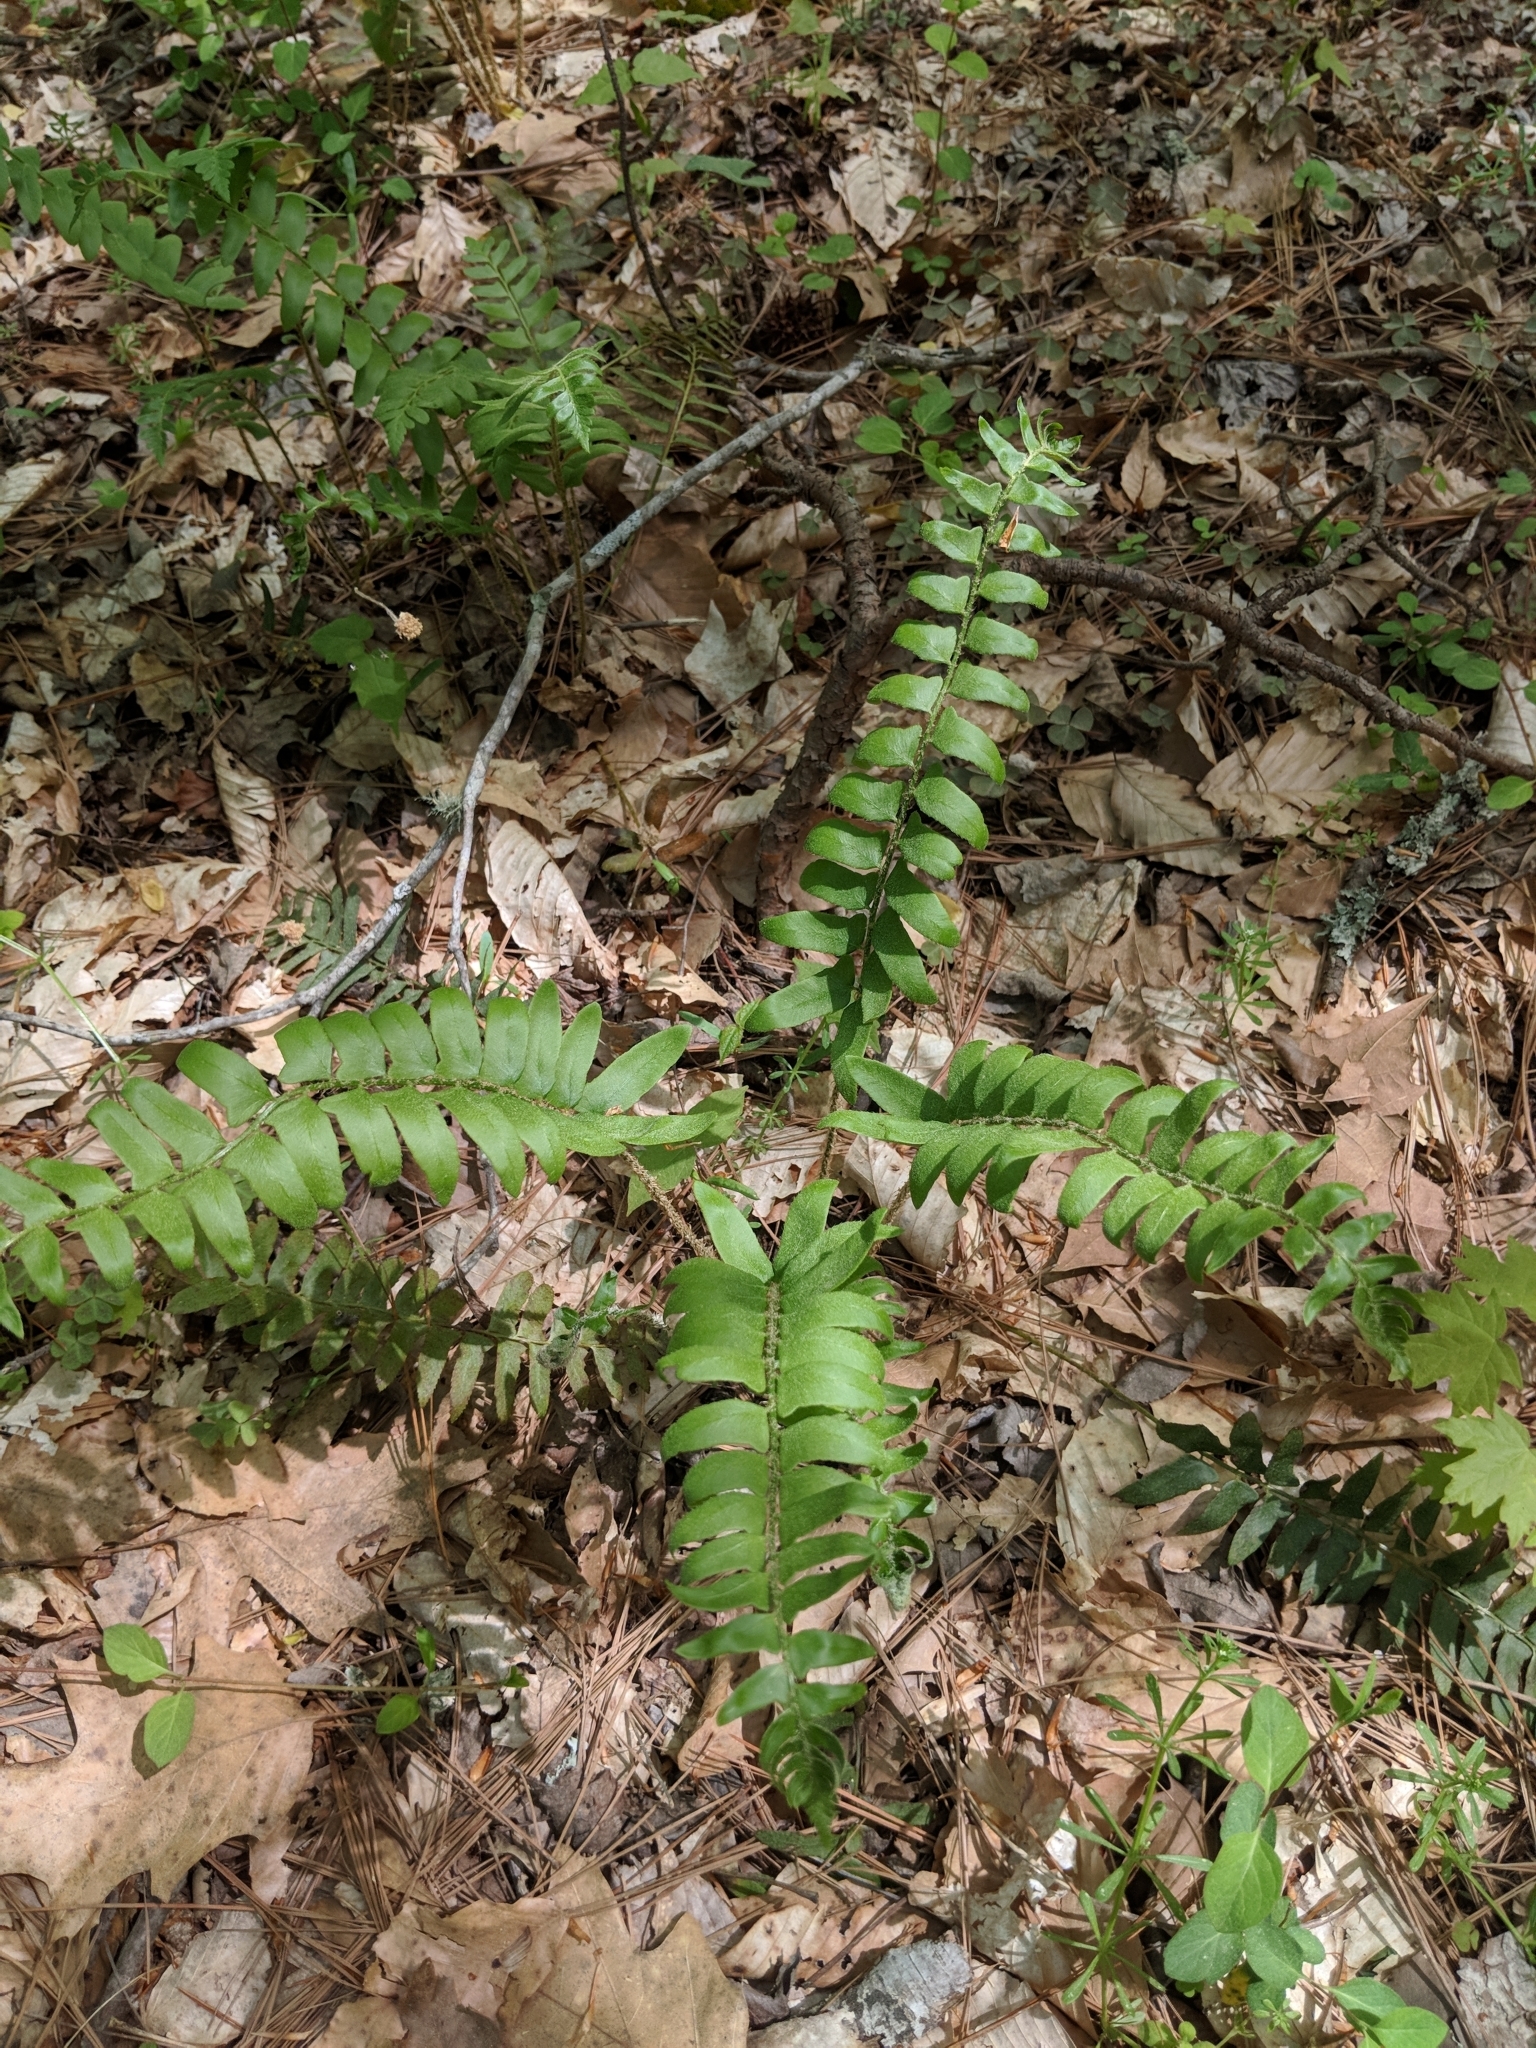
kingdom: Plantae
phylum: Tracheophyta
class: Polypodiopsida
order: Polypodiales
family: Dryopteridaceae
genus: Polystichum
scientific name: Polystichum acrostichoides
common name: Christmas fern
